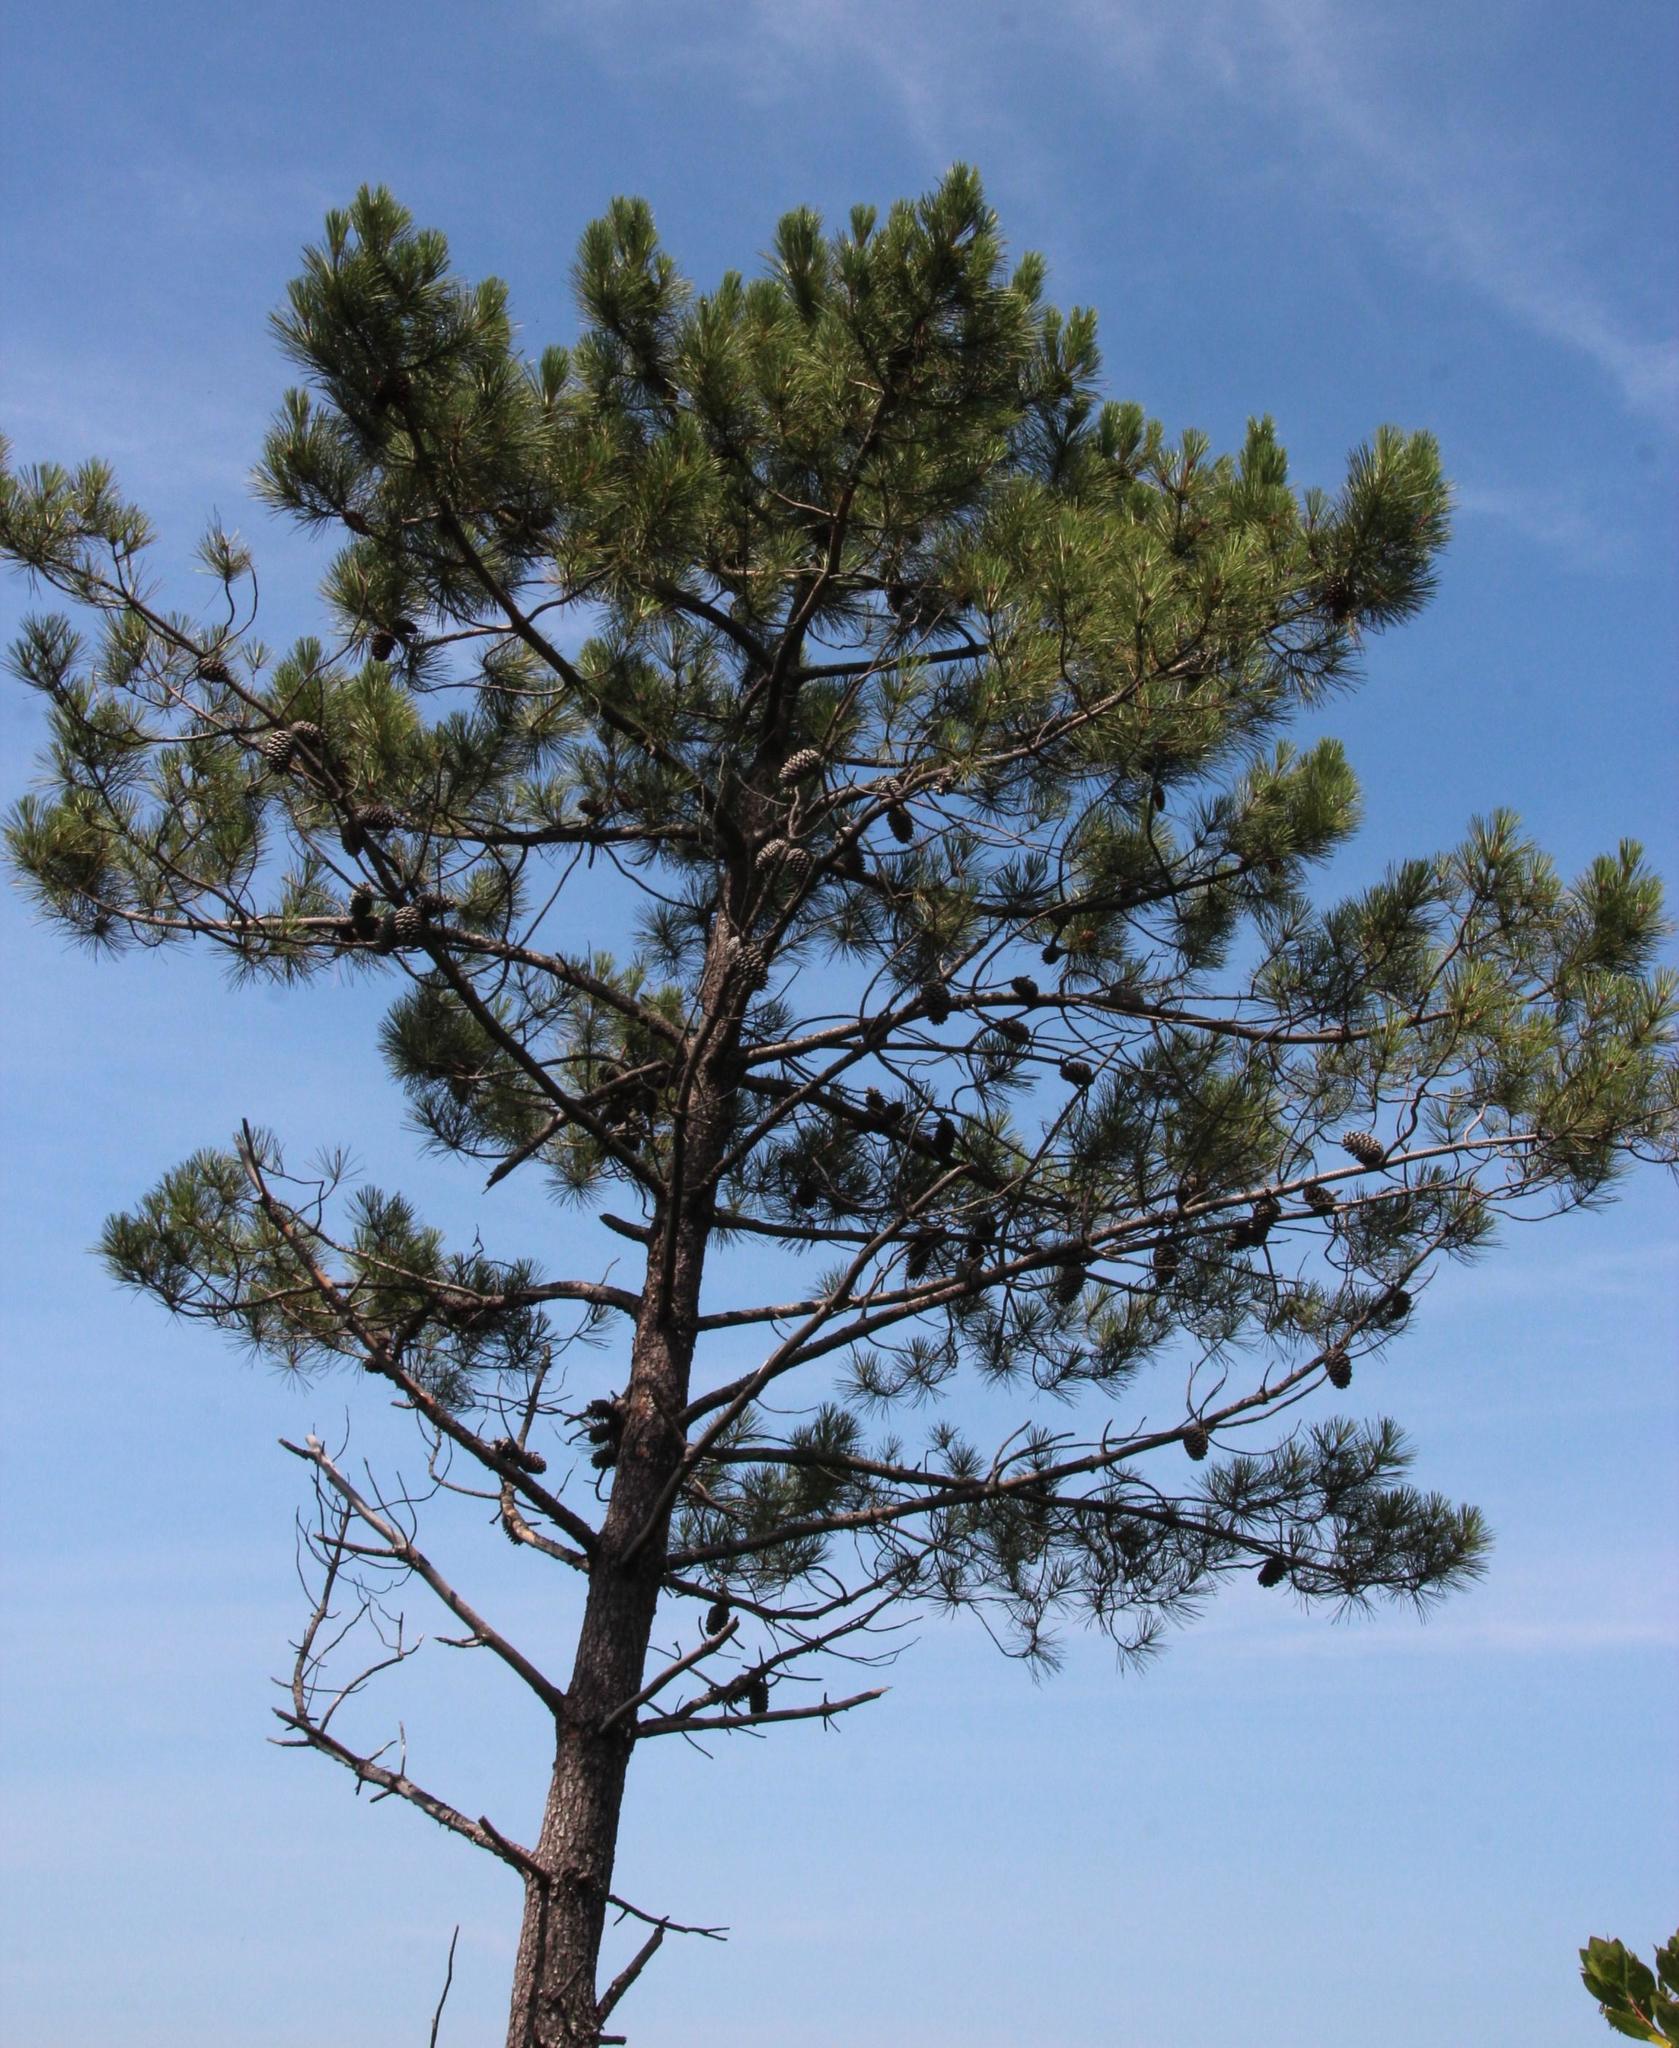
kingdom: Plantae
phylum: Tracheophyta
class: Pinopsida
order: Pinales
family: Pinaceae
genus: Pinus
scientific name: Pinus pinaster
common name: Maritime pine
